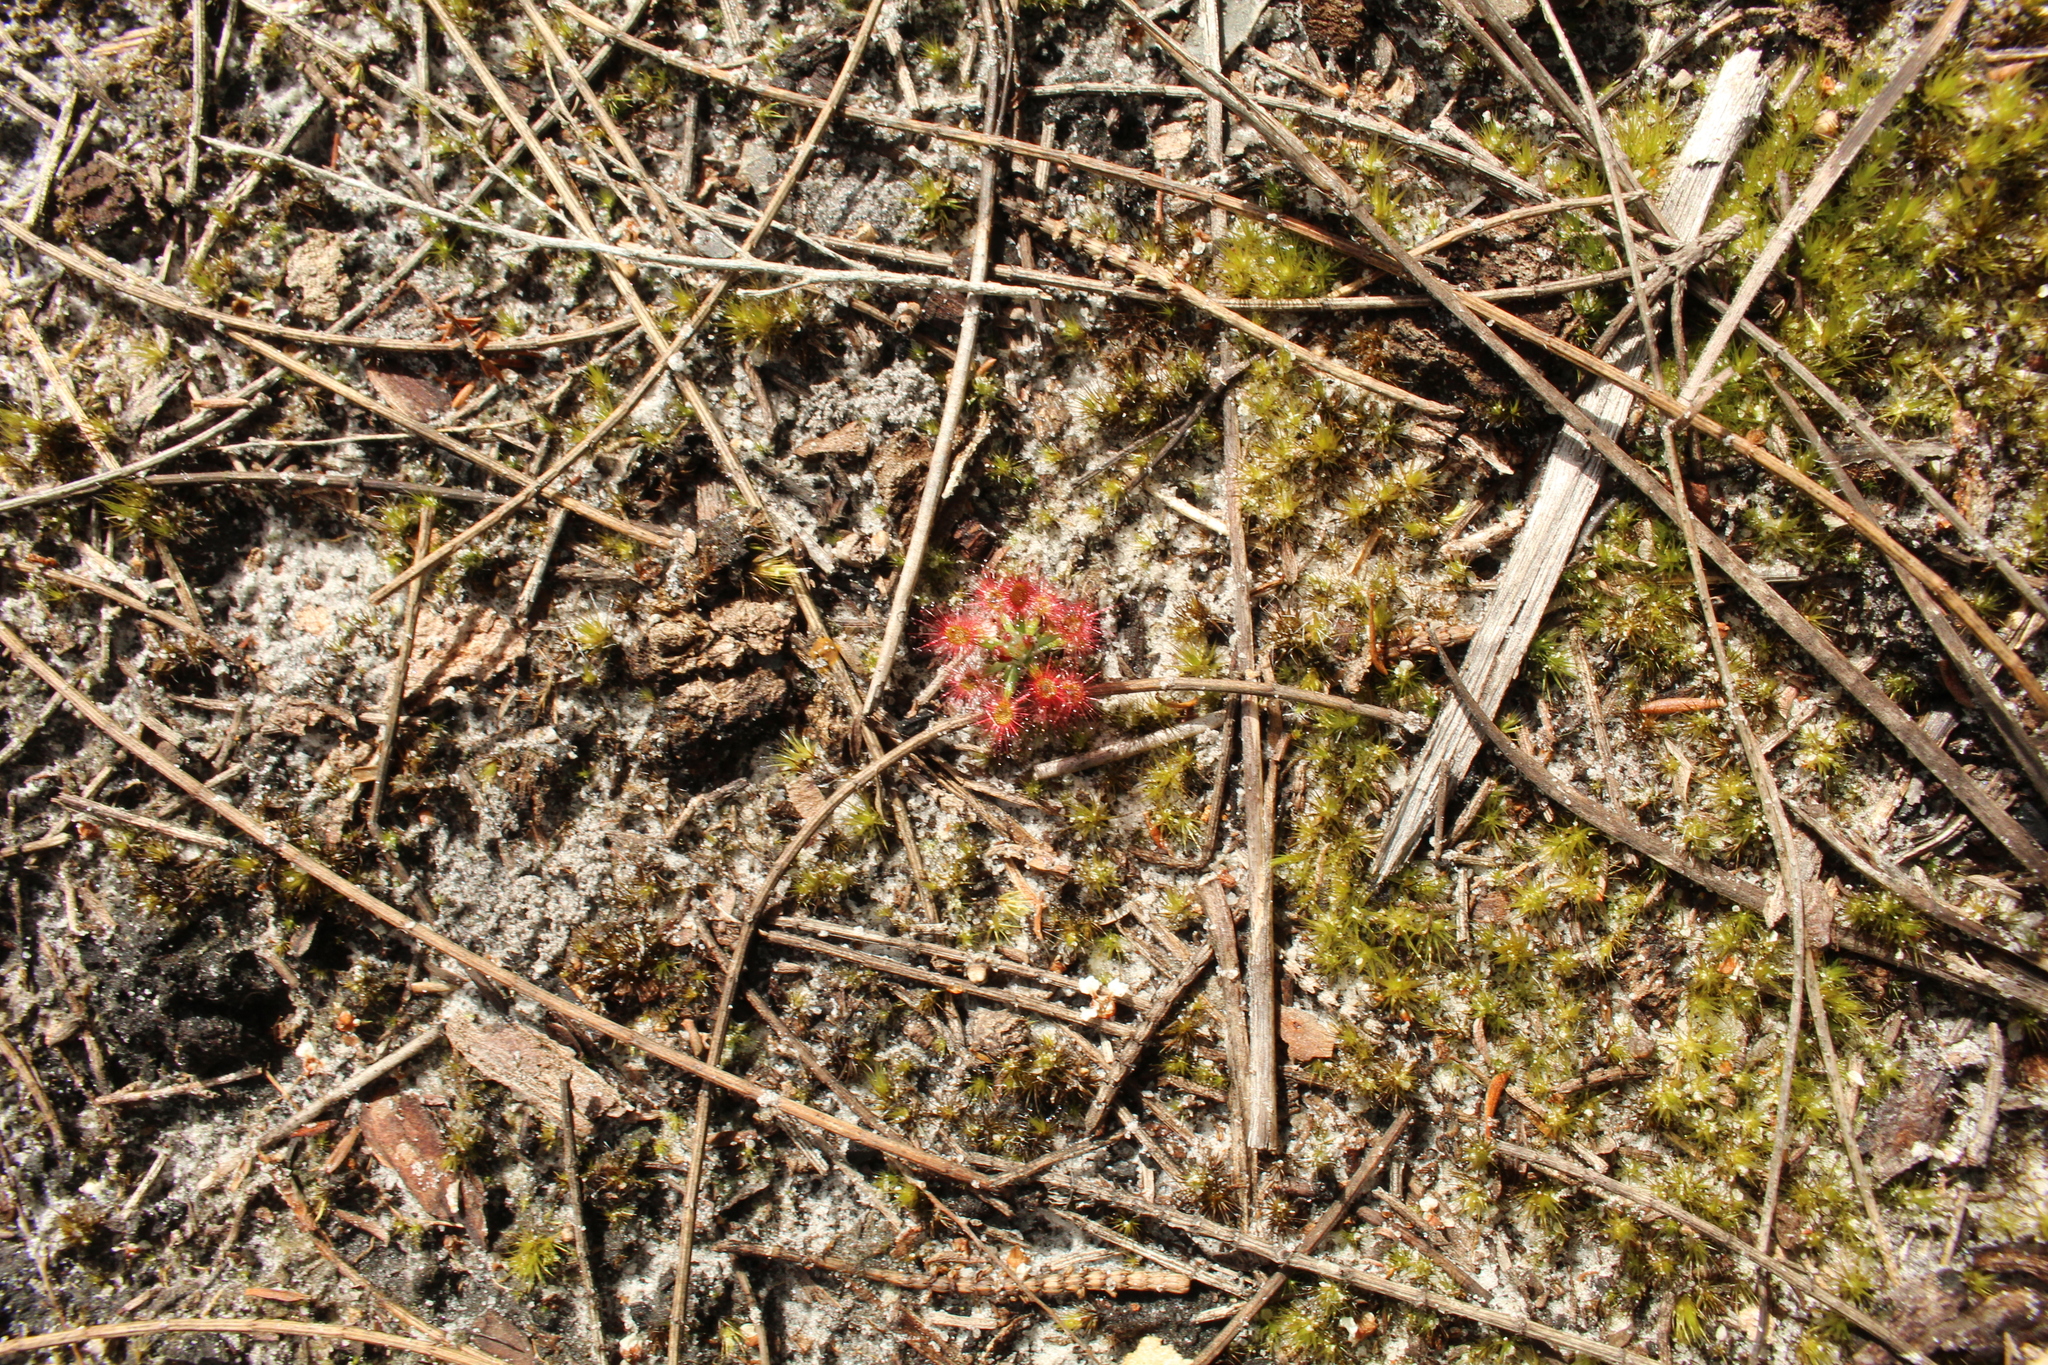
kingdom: Plantae
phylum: Tracheophyta
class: Magnoliopsida
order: Caryophyllales
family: Droseraceae
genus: Drosera
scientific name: Drosera paleacea
